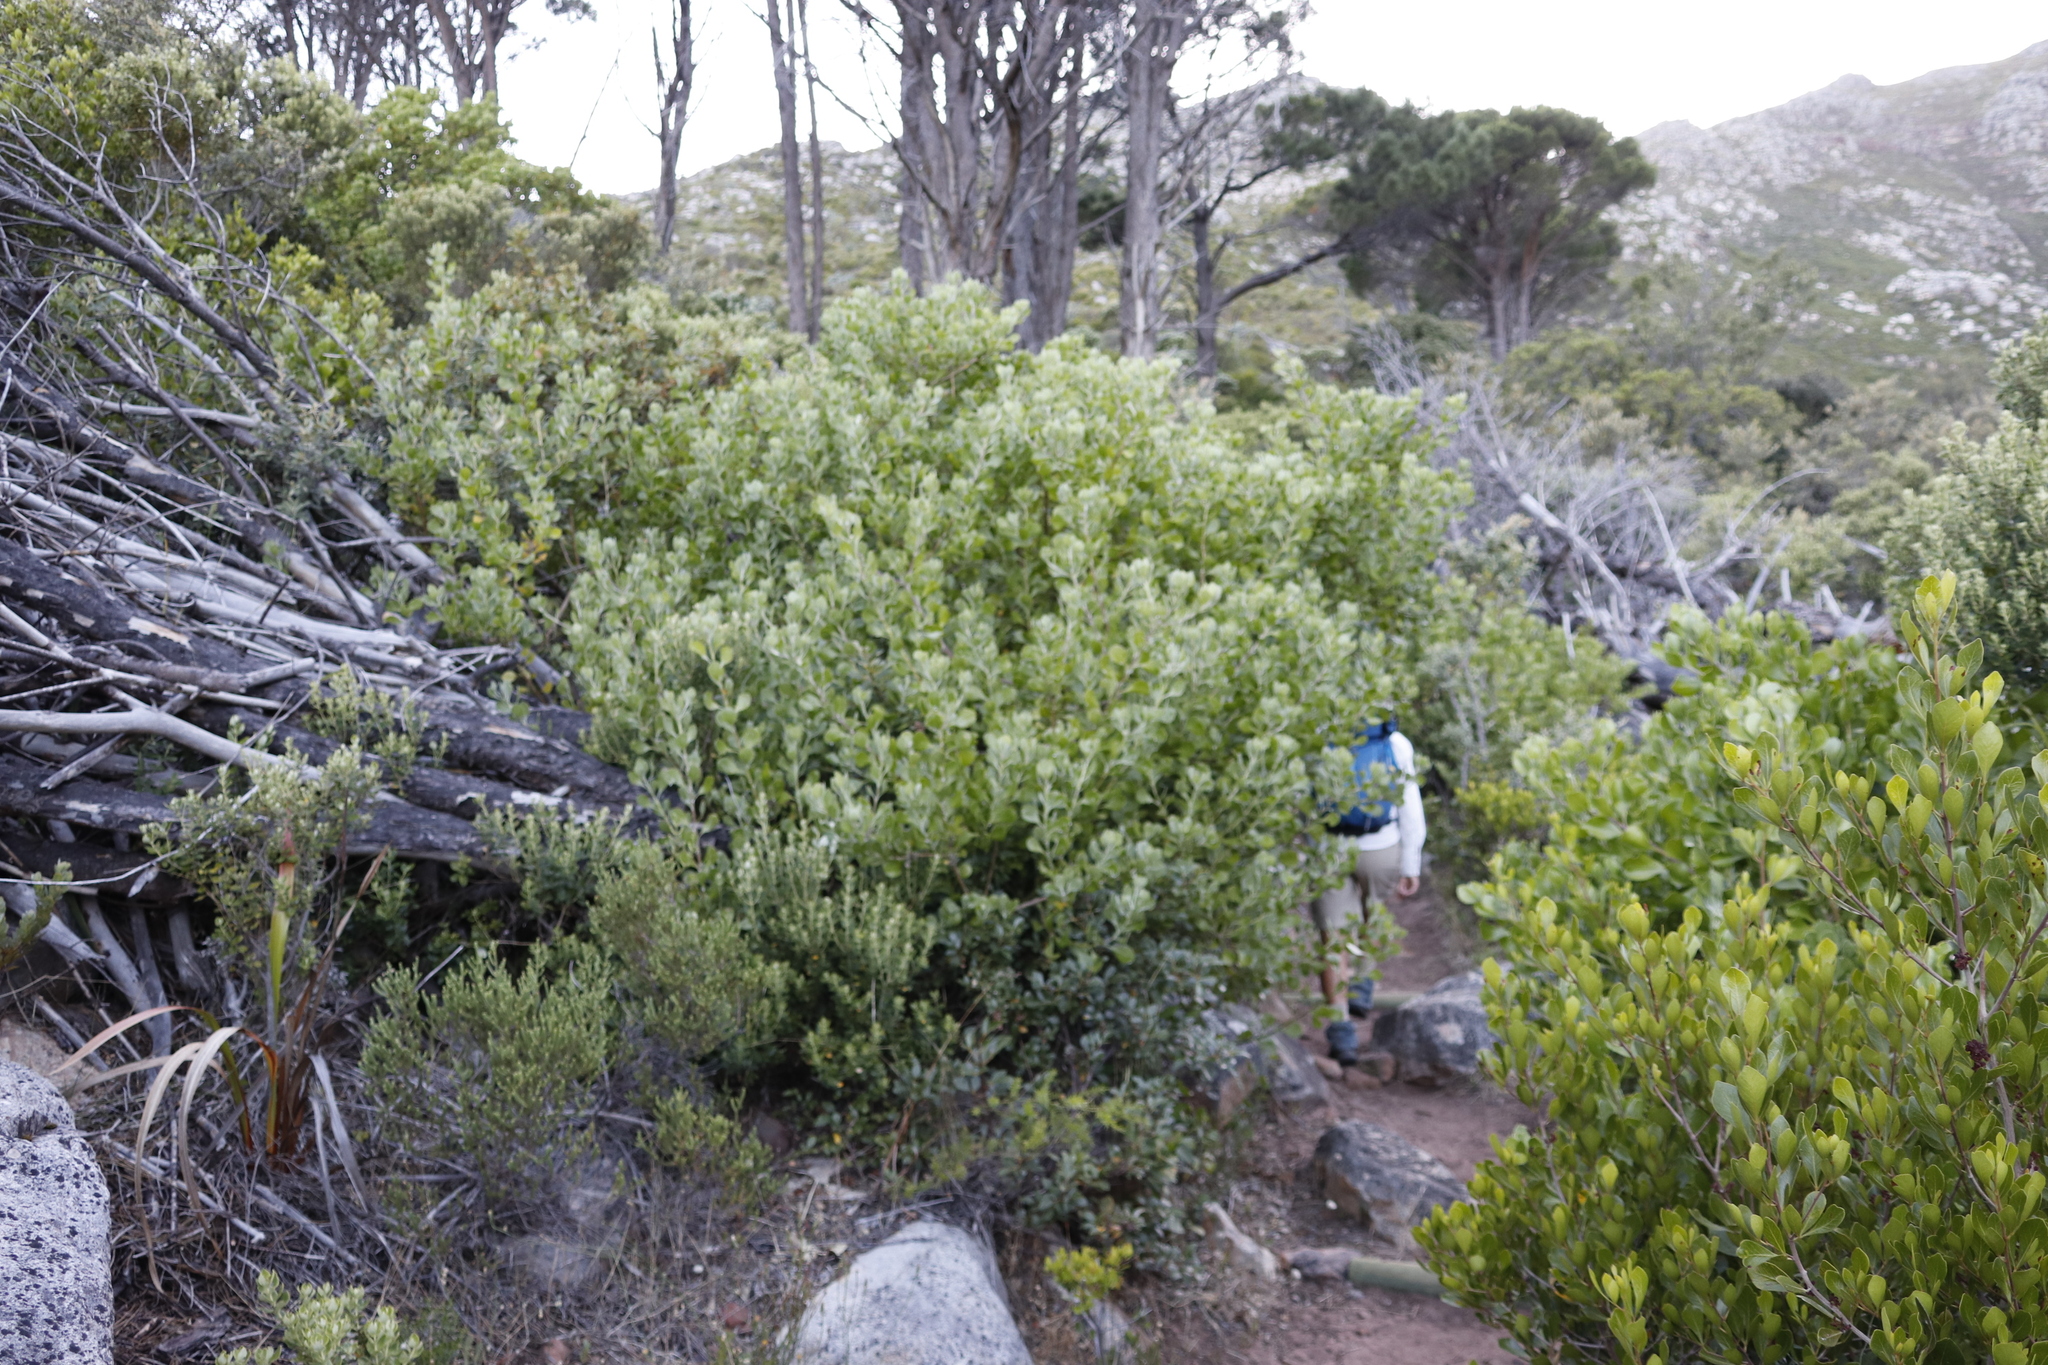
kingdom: Plantae
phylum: Tracheophyta
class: Magnoliopsida
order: Asterales
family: Asteraceae
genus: Osteospermum
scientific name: Osteospermum moniliferum
